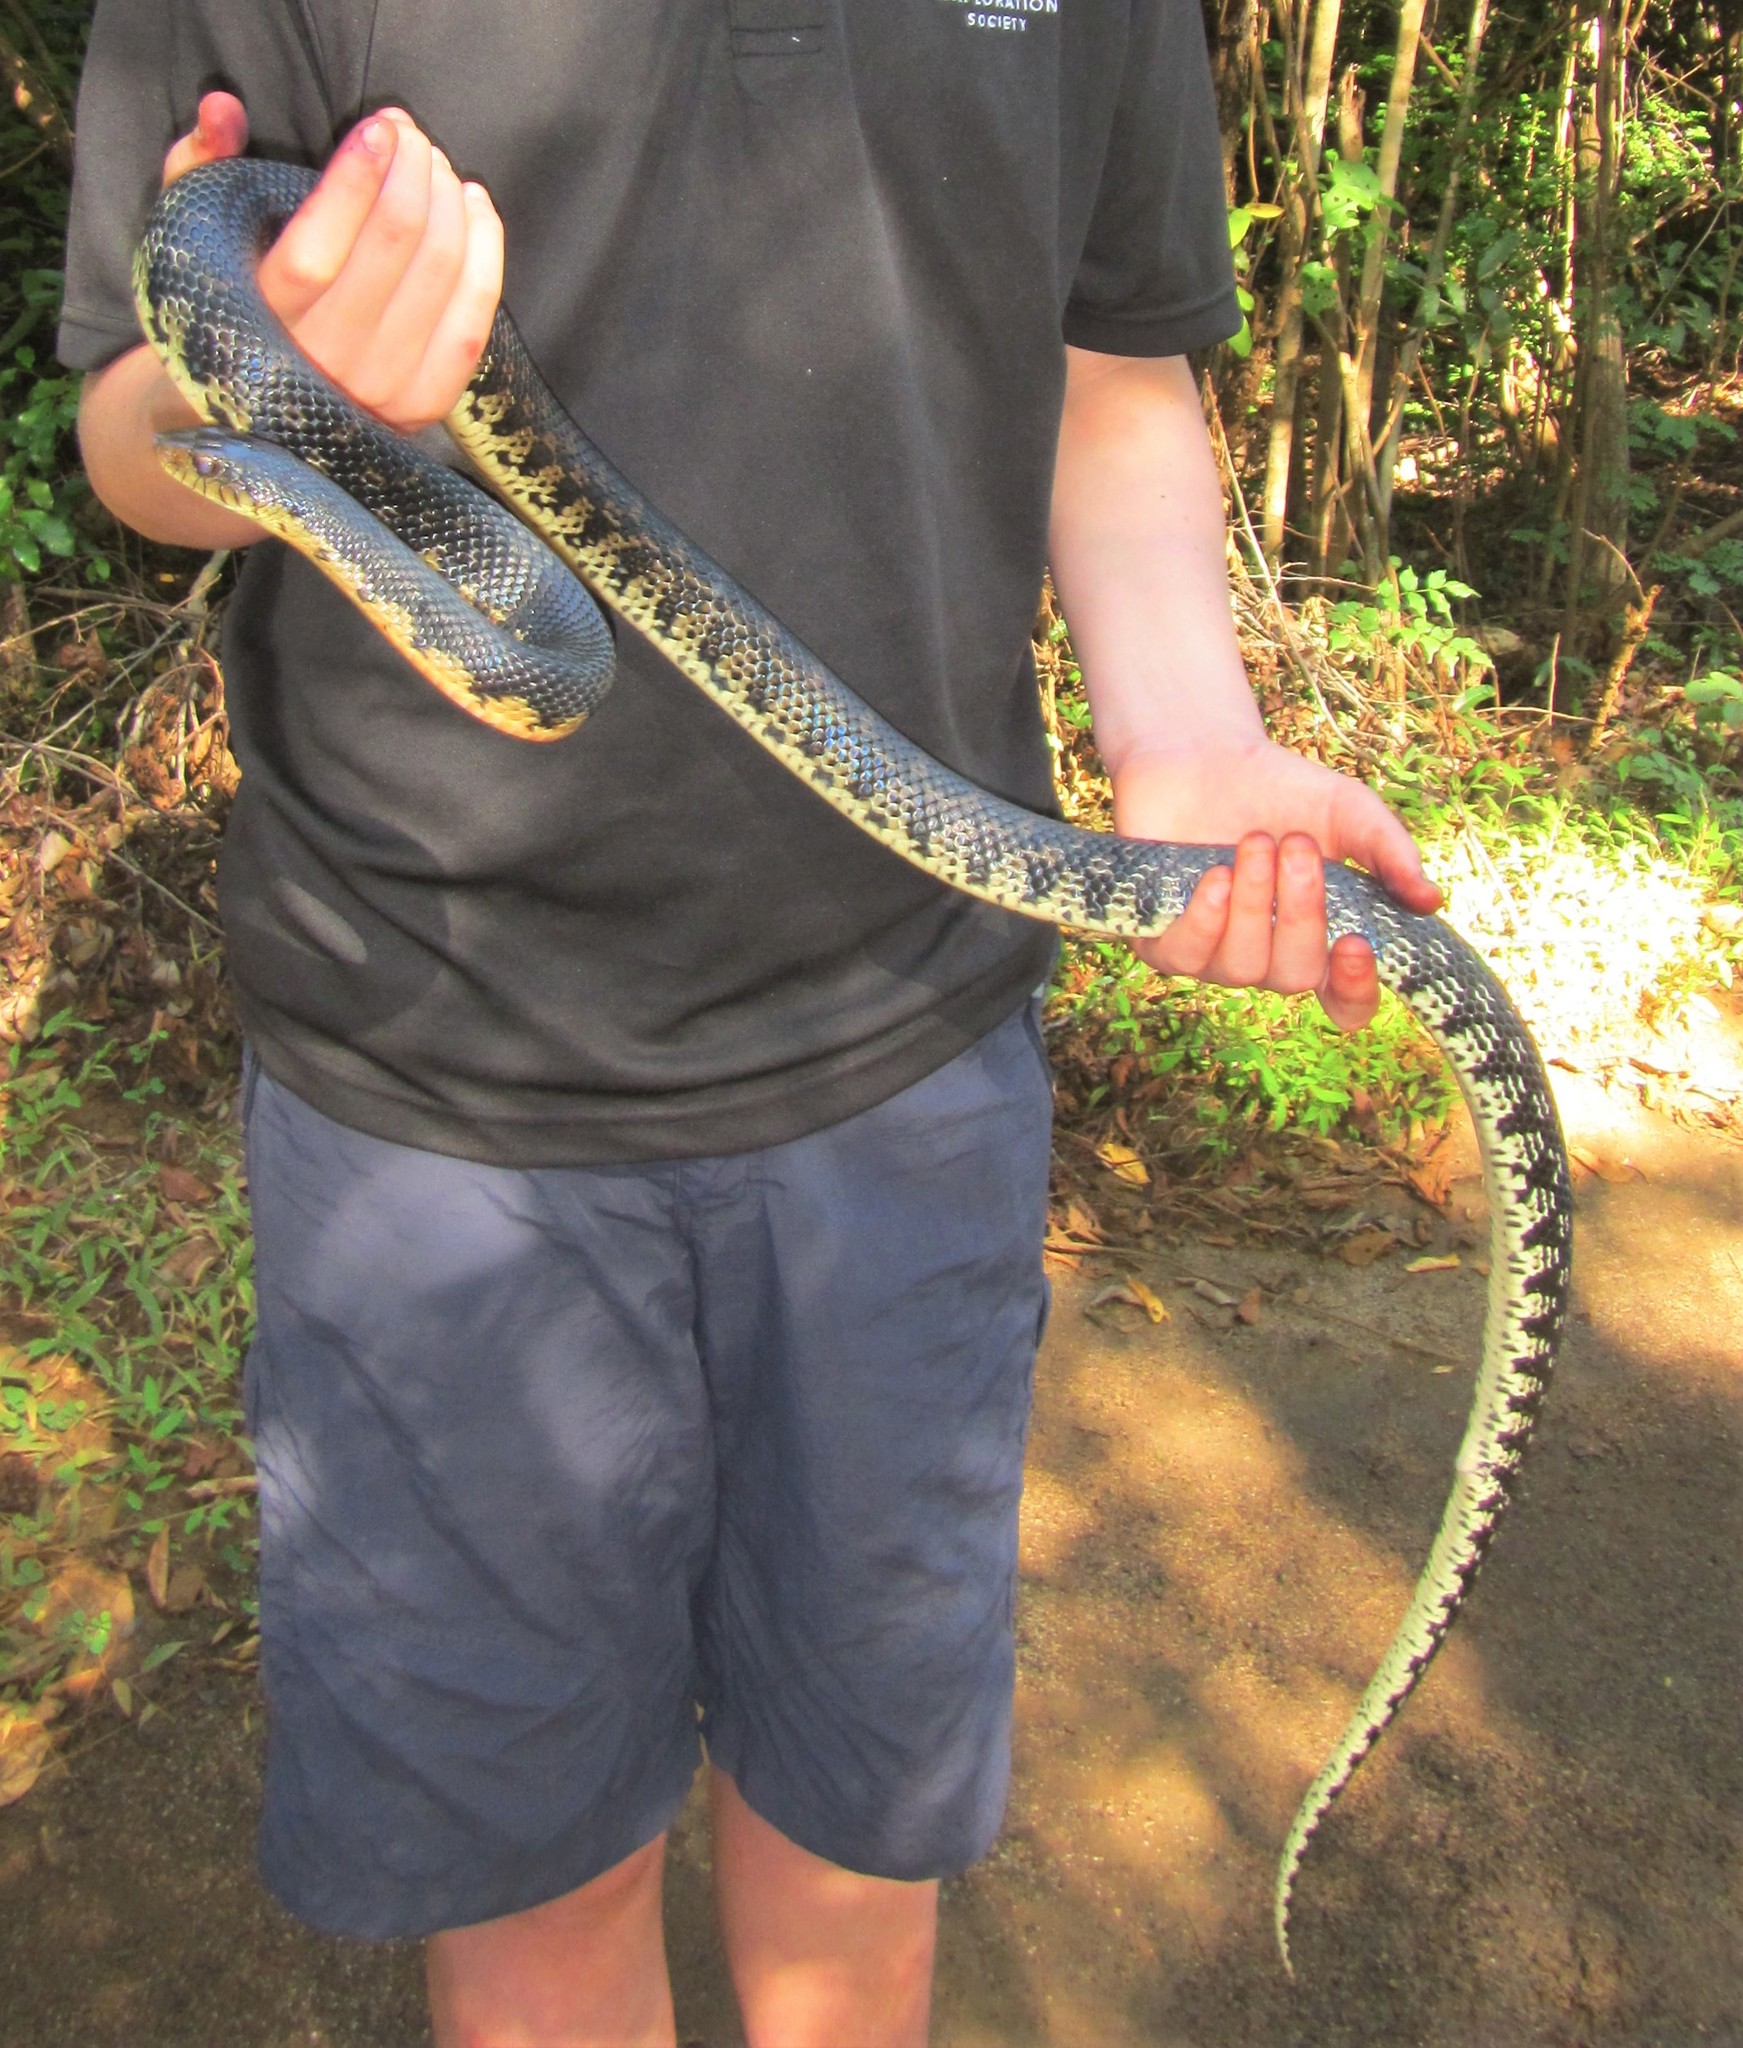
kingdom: Animalia
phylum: Chordata
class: Squamata
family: Pseudoxyrhophiidae
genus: Leioheterodon
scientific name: Leioheterodon madagascariensis
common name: Malagasy giant hognose snake
